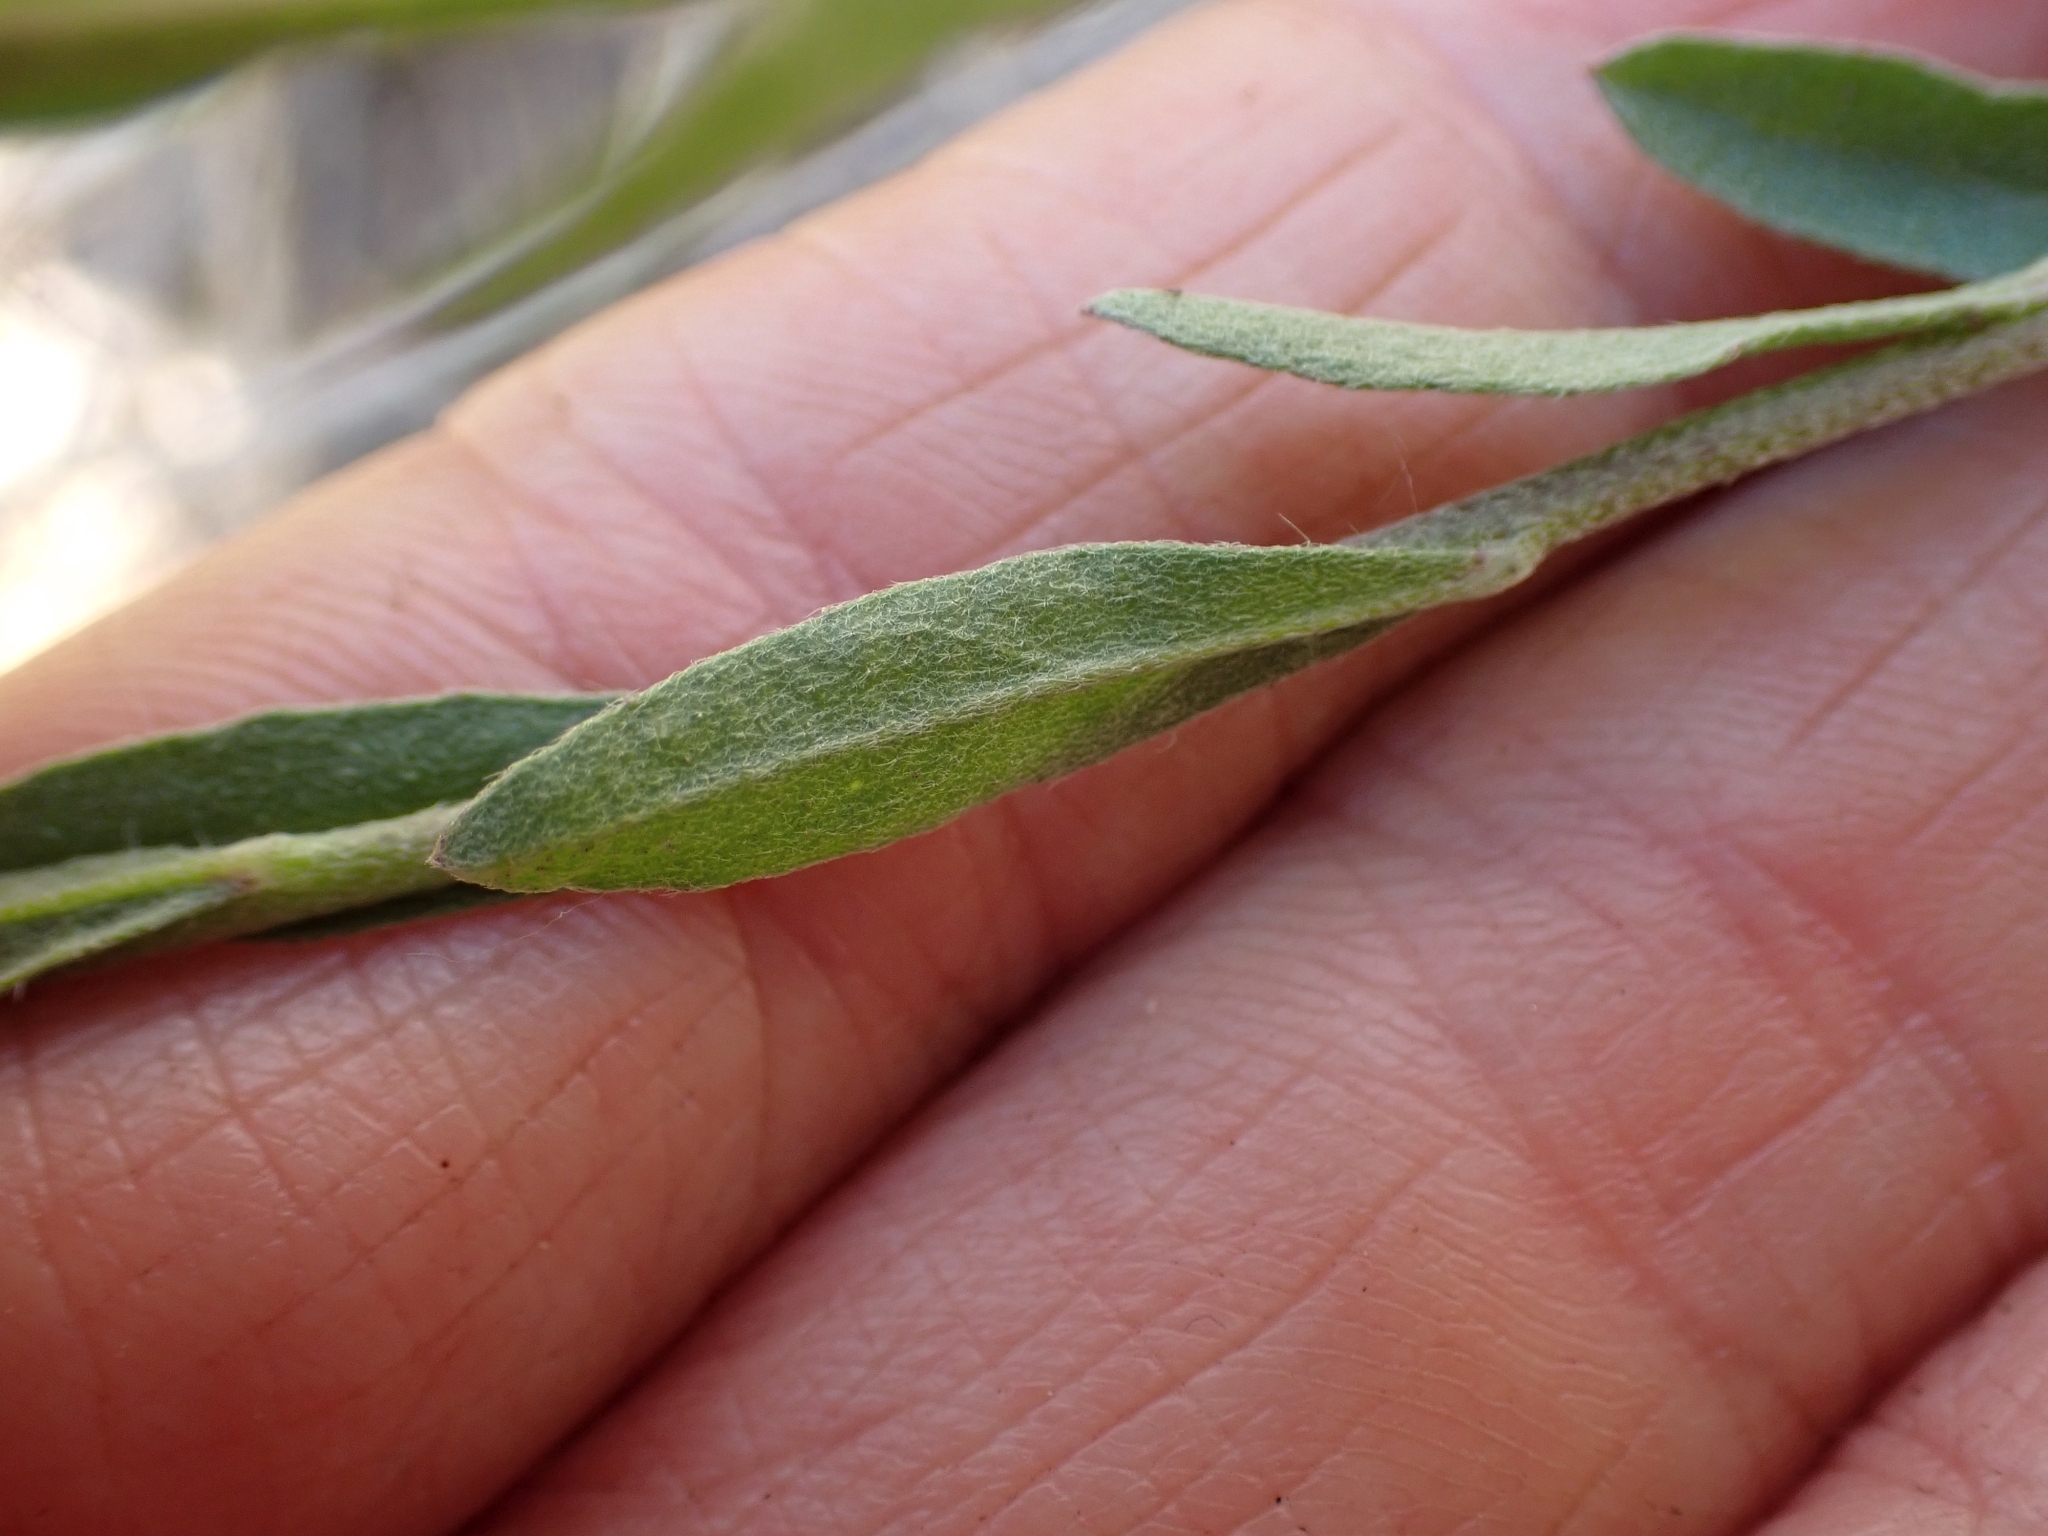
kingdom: Plantae
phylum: Tracheophyta
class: Magnoliopsida
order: Brassicales
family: Brassicaceae
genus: Berteroa
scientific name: Berteroa incana
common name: Hoary alison
